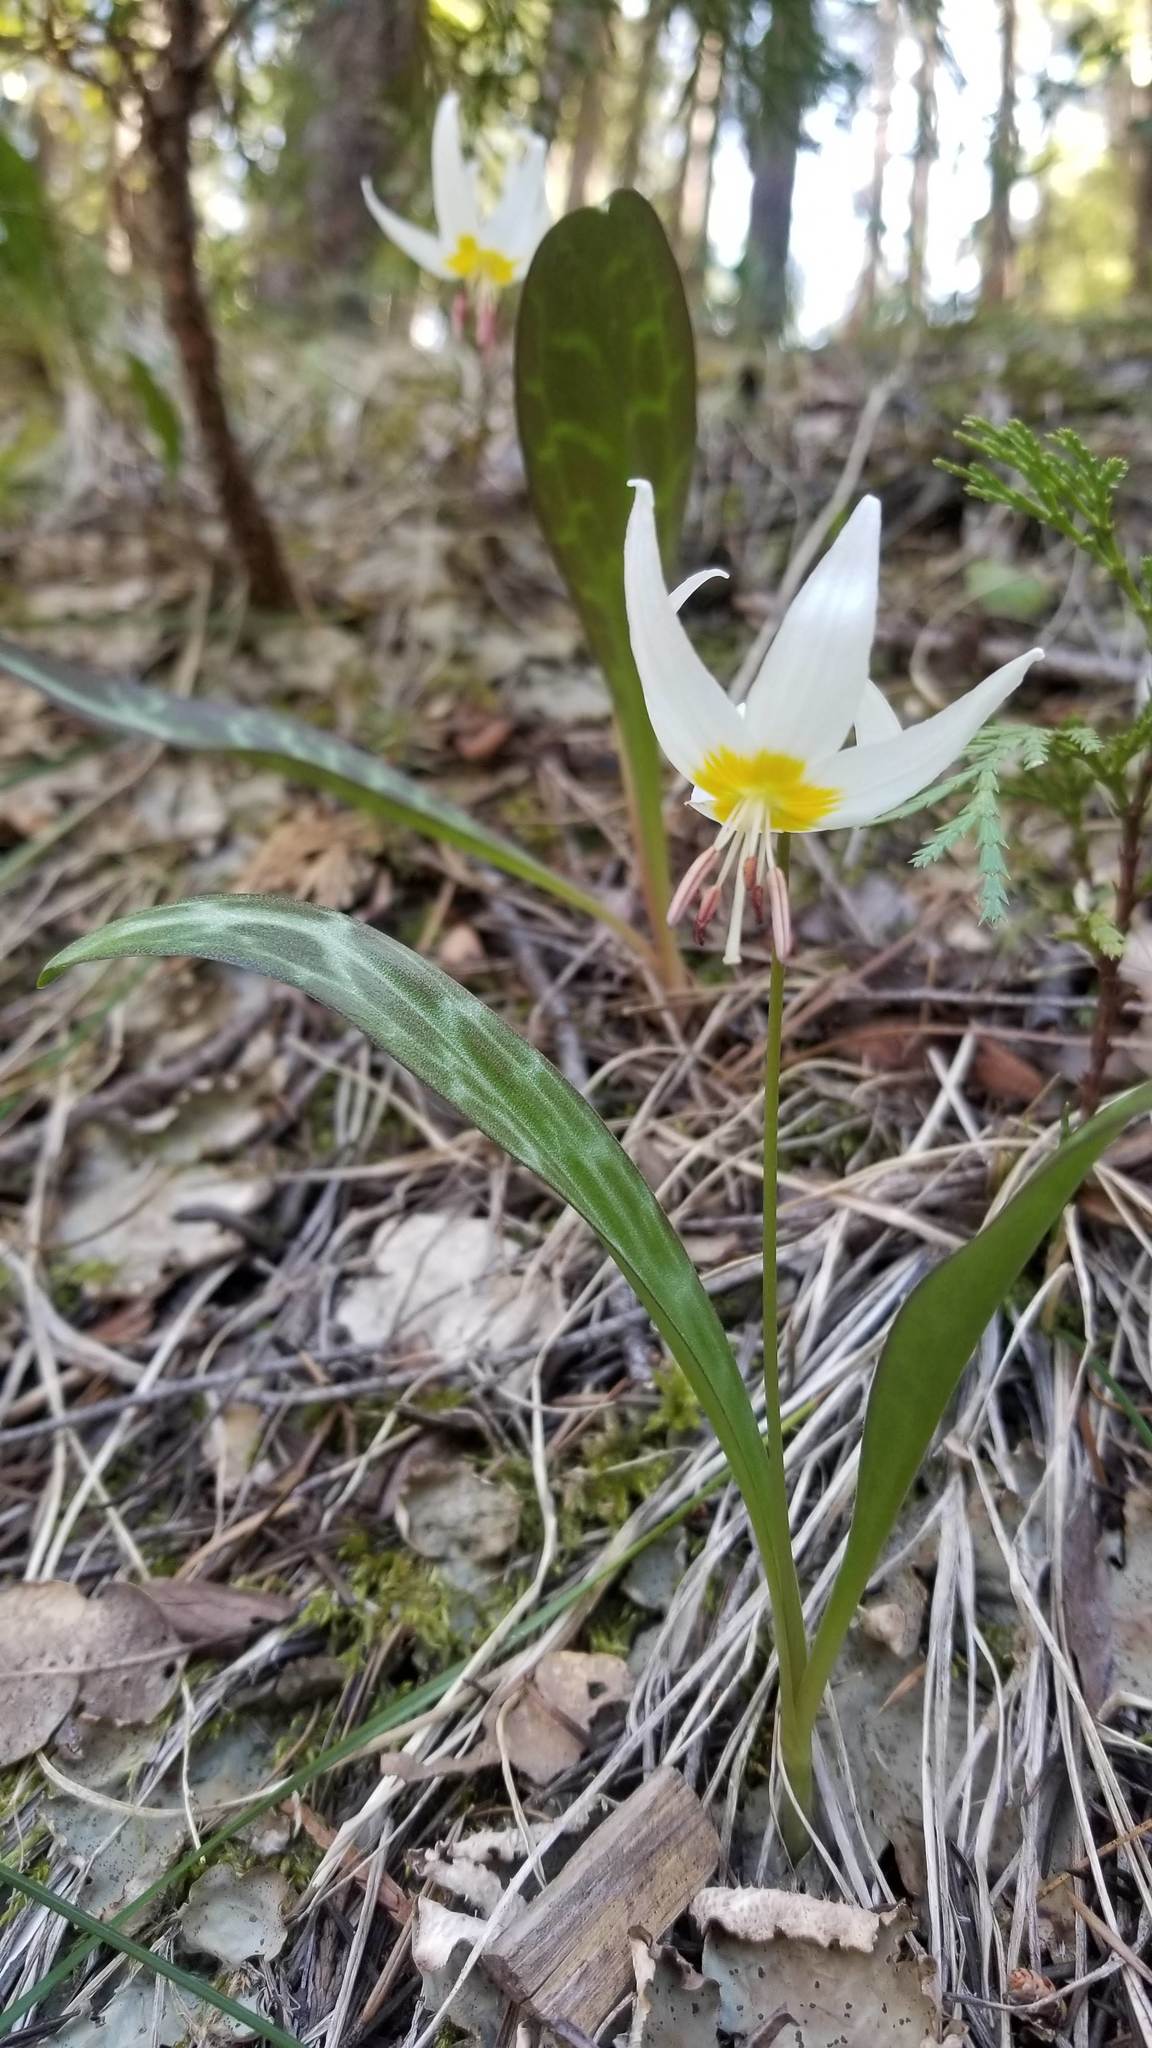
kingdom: Plantae
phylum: Tracheophyta
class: Liliopsida
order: Liliales
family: Liliaceae
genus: Erythronium
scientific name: Erythronium citrinum
